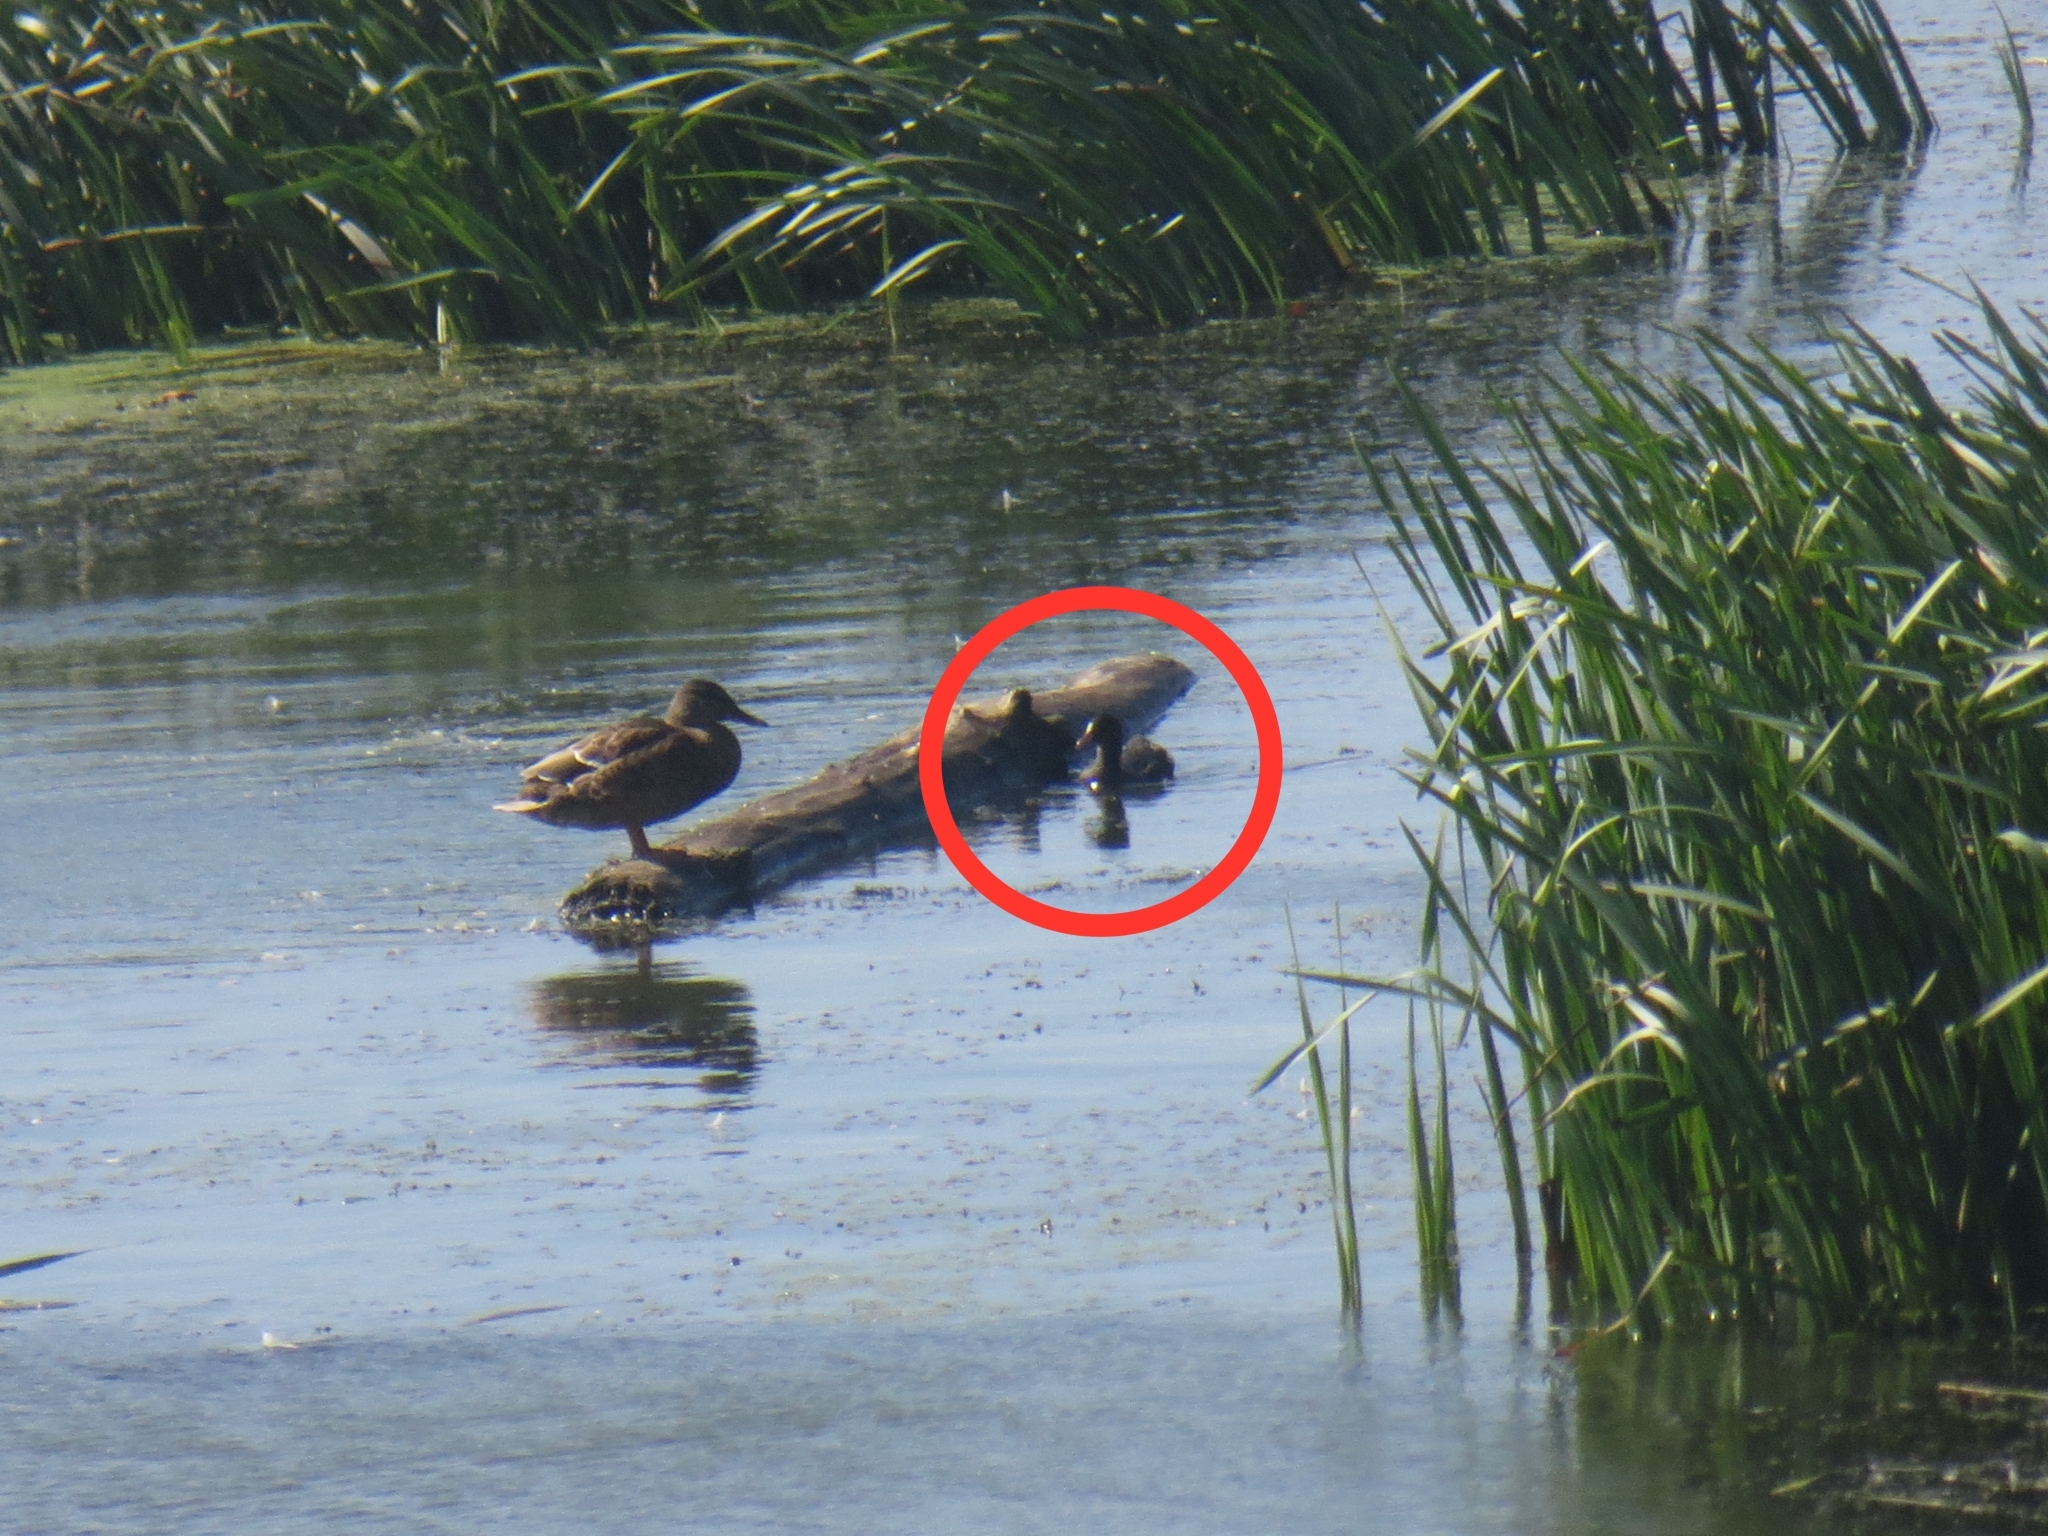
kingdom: Animalia
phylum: Chordata
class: Aves
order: Gruiformes
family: Rallidae
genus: Fulica
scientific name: Fulica atra
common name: Eurasian coot
